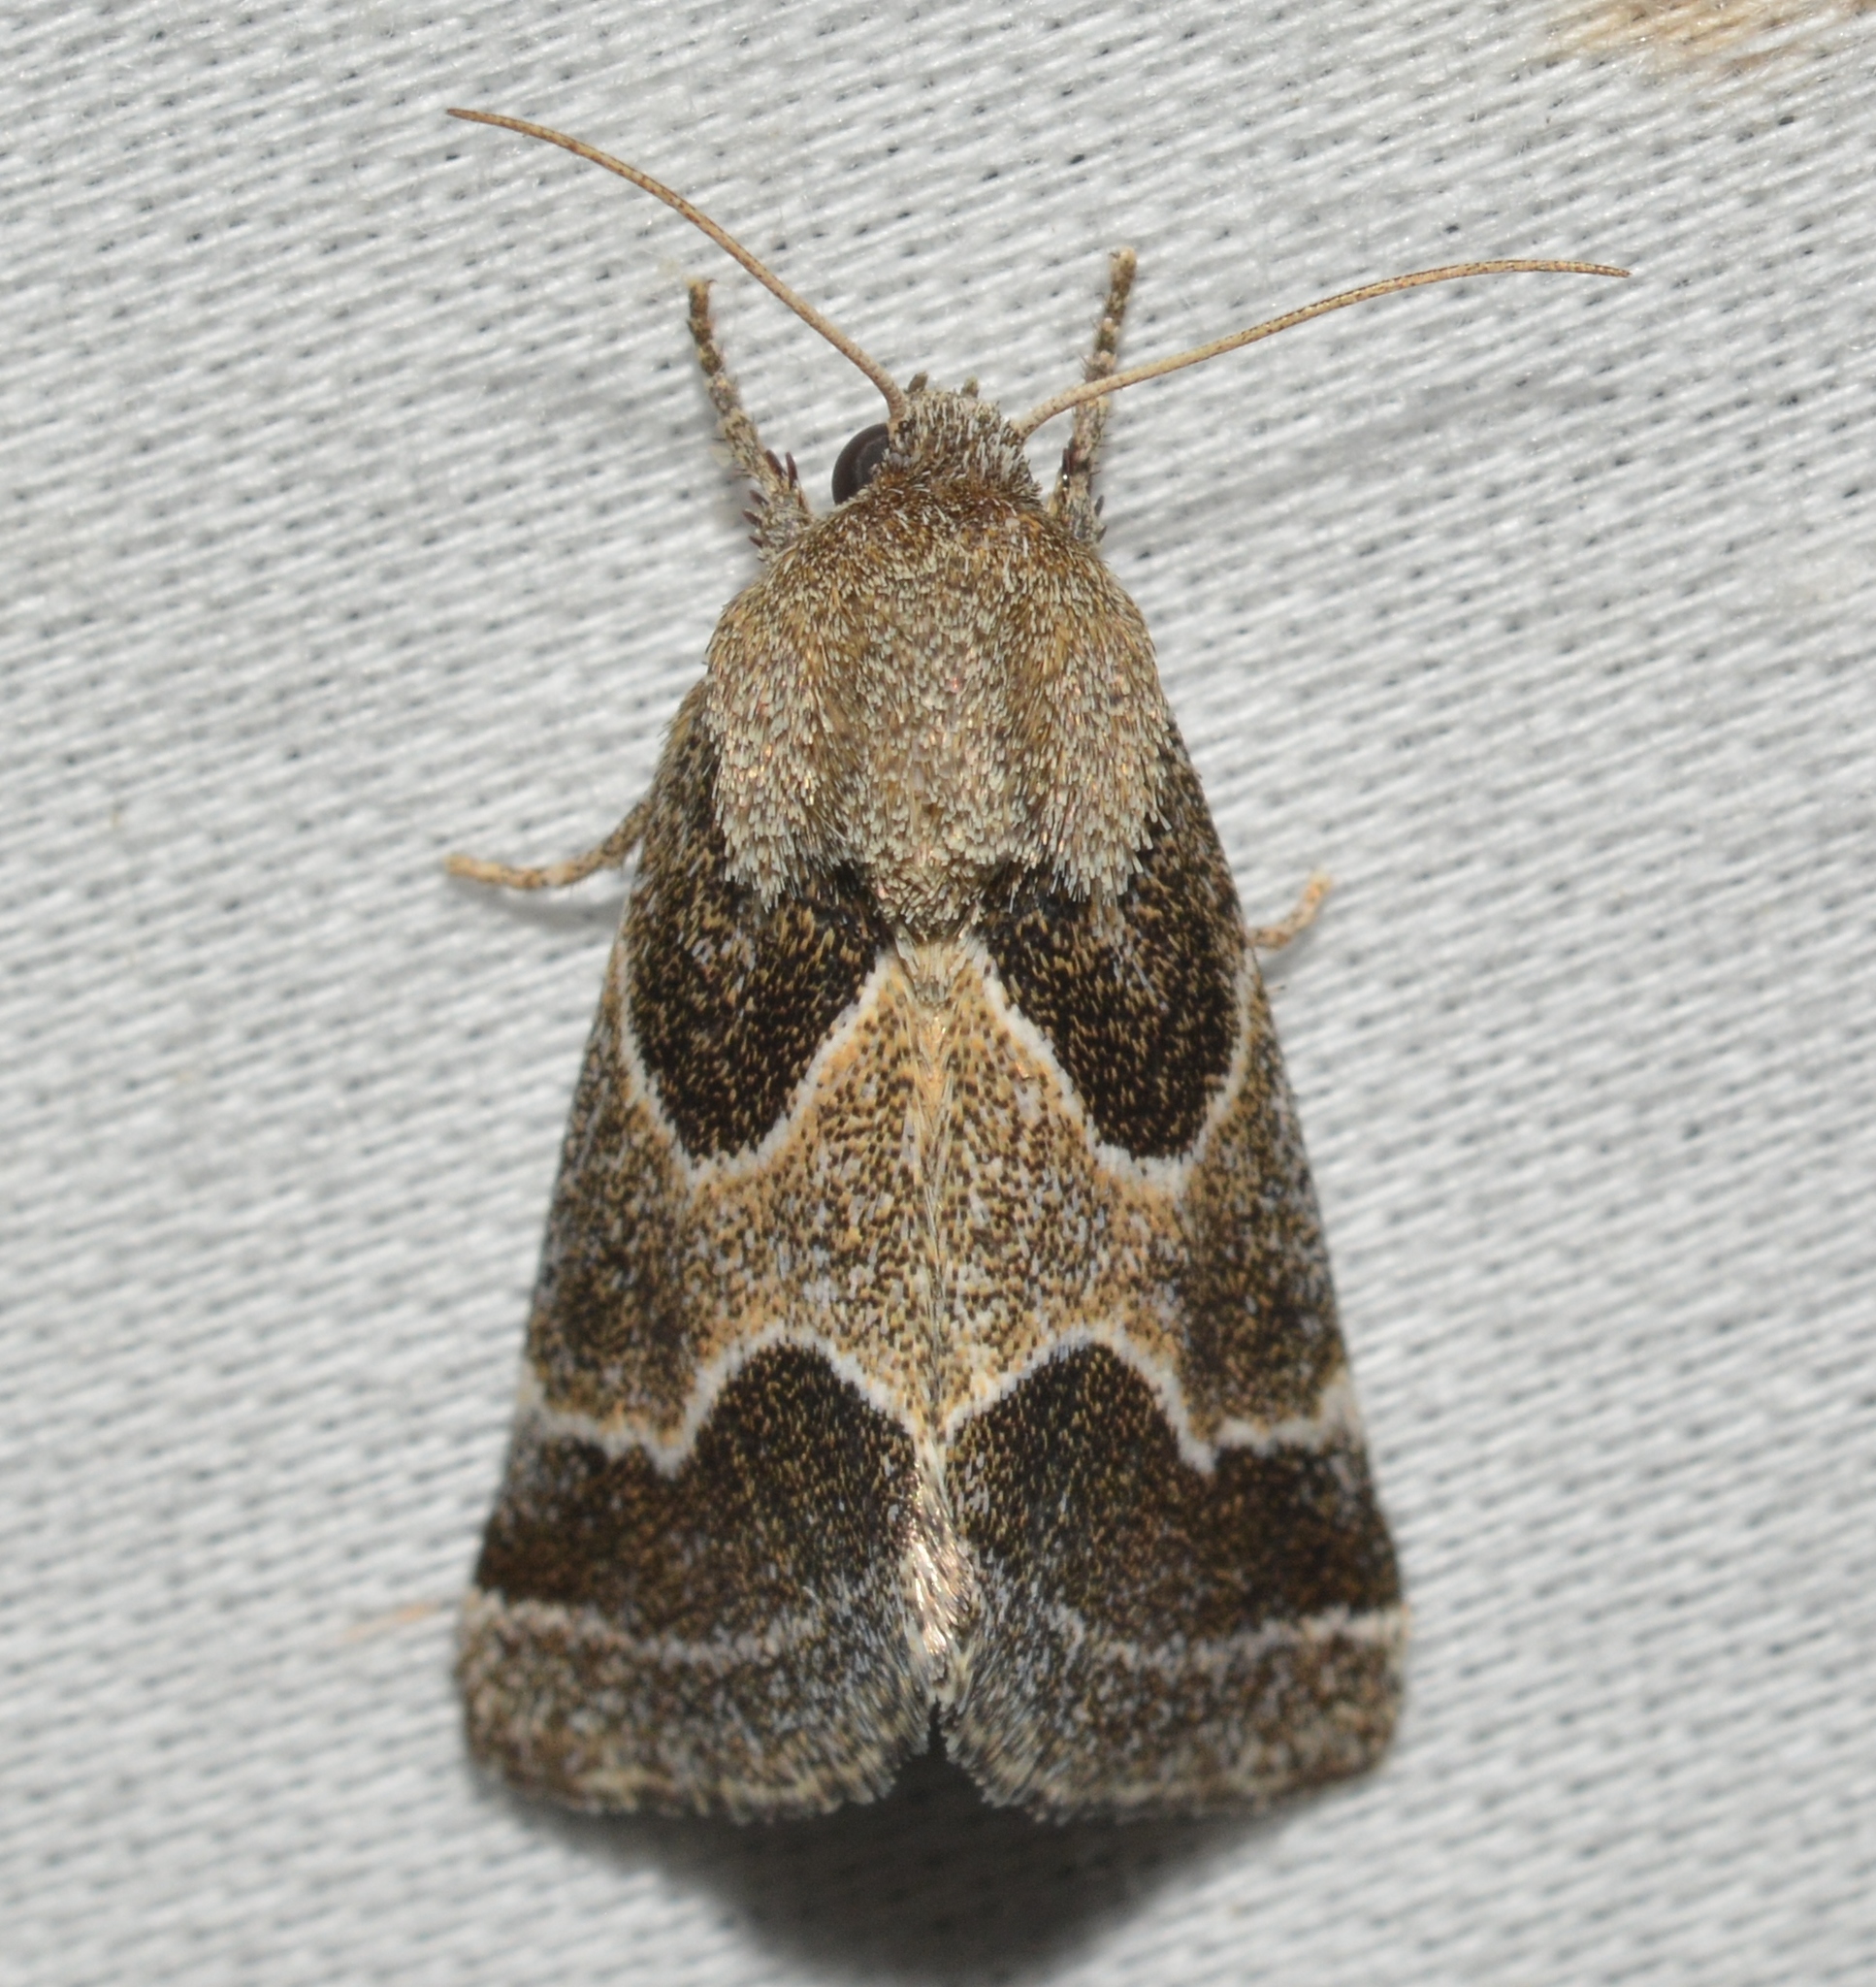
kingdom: Animalia
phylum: Arthropoda
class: Insecta
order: Lepidoptera
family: Noctuidae
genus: Schinia
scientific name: Schinia rivulosa
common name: Scarce meal-moth
